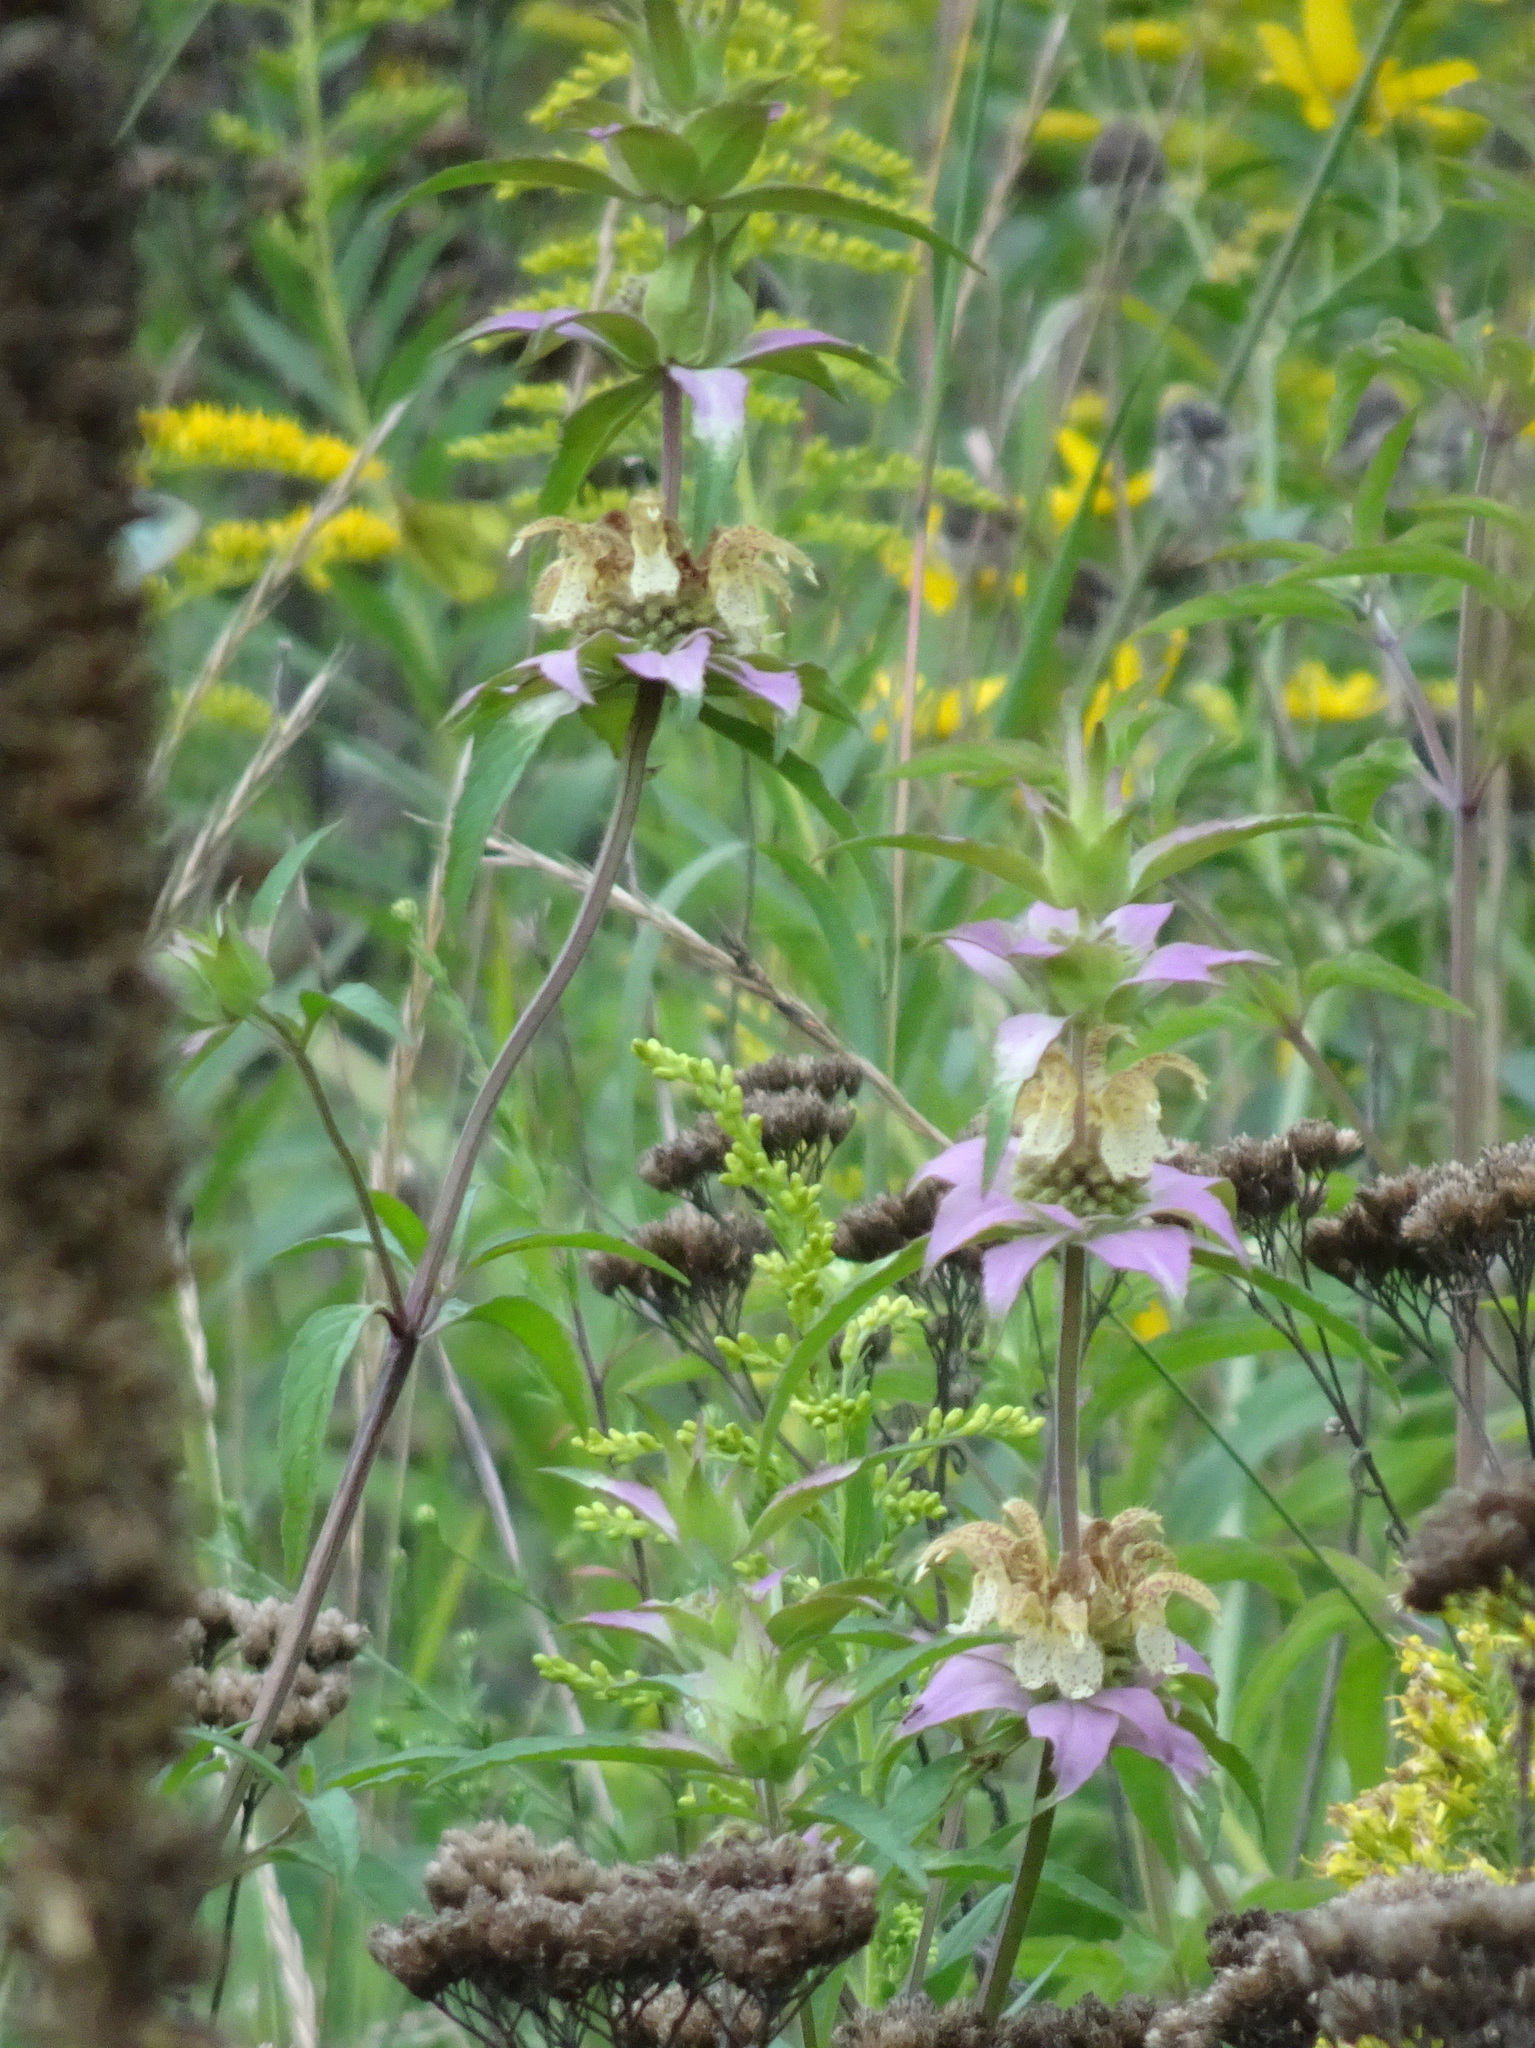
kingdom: Plantae
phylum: Tracheophyta
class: Magnoliopsida
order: Lamiales
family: Lamiaceae
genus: Monarda
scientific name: Monarda punctata
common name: Dotted monarda
